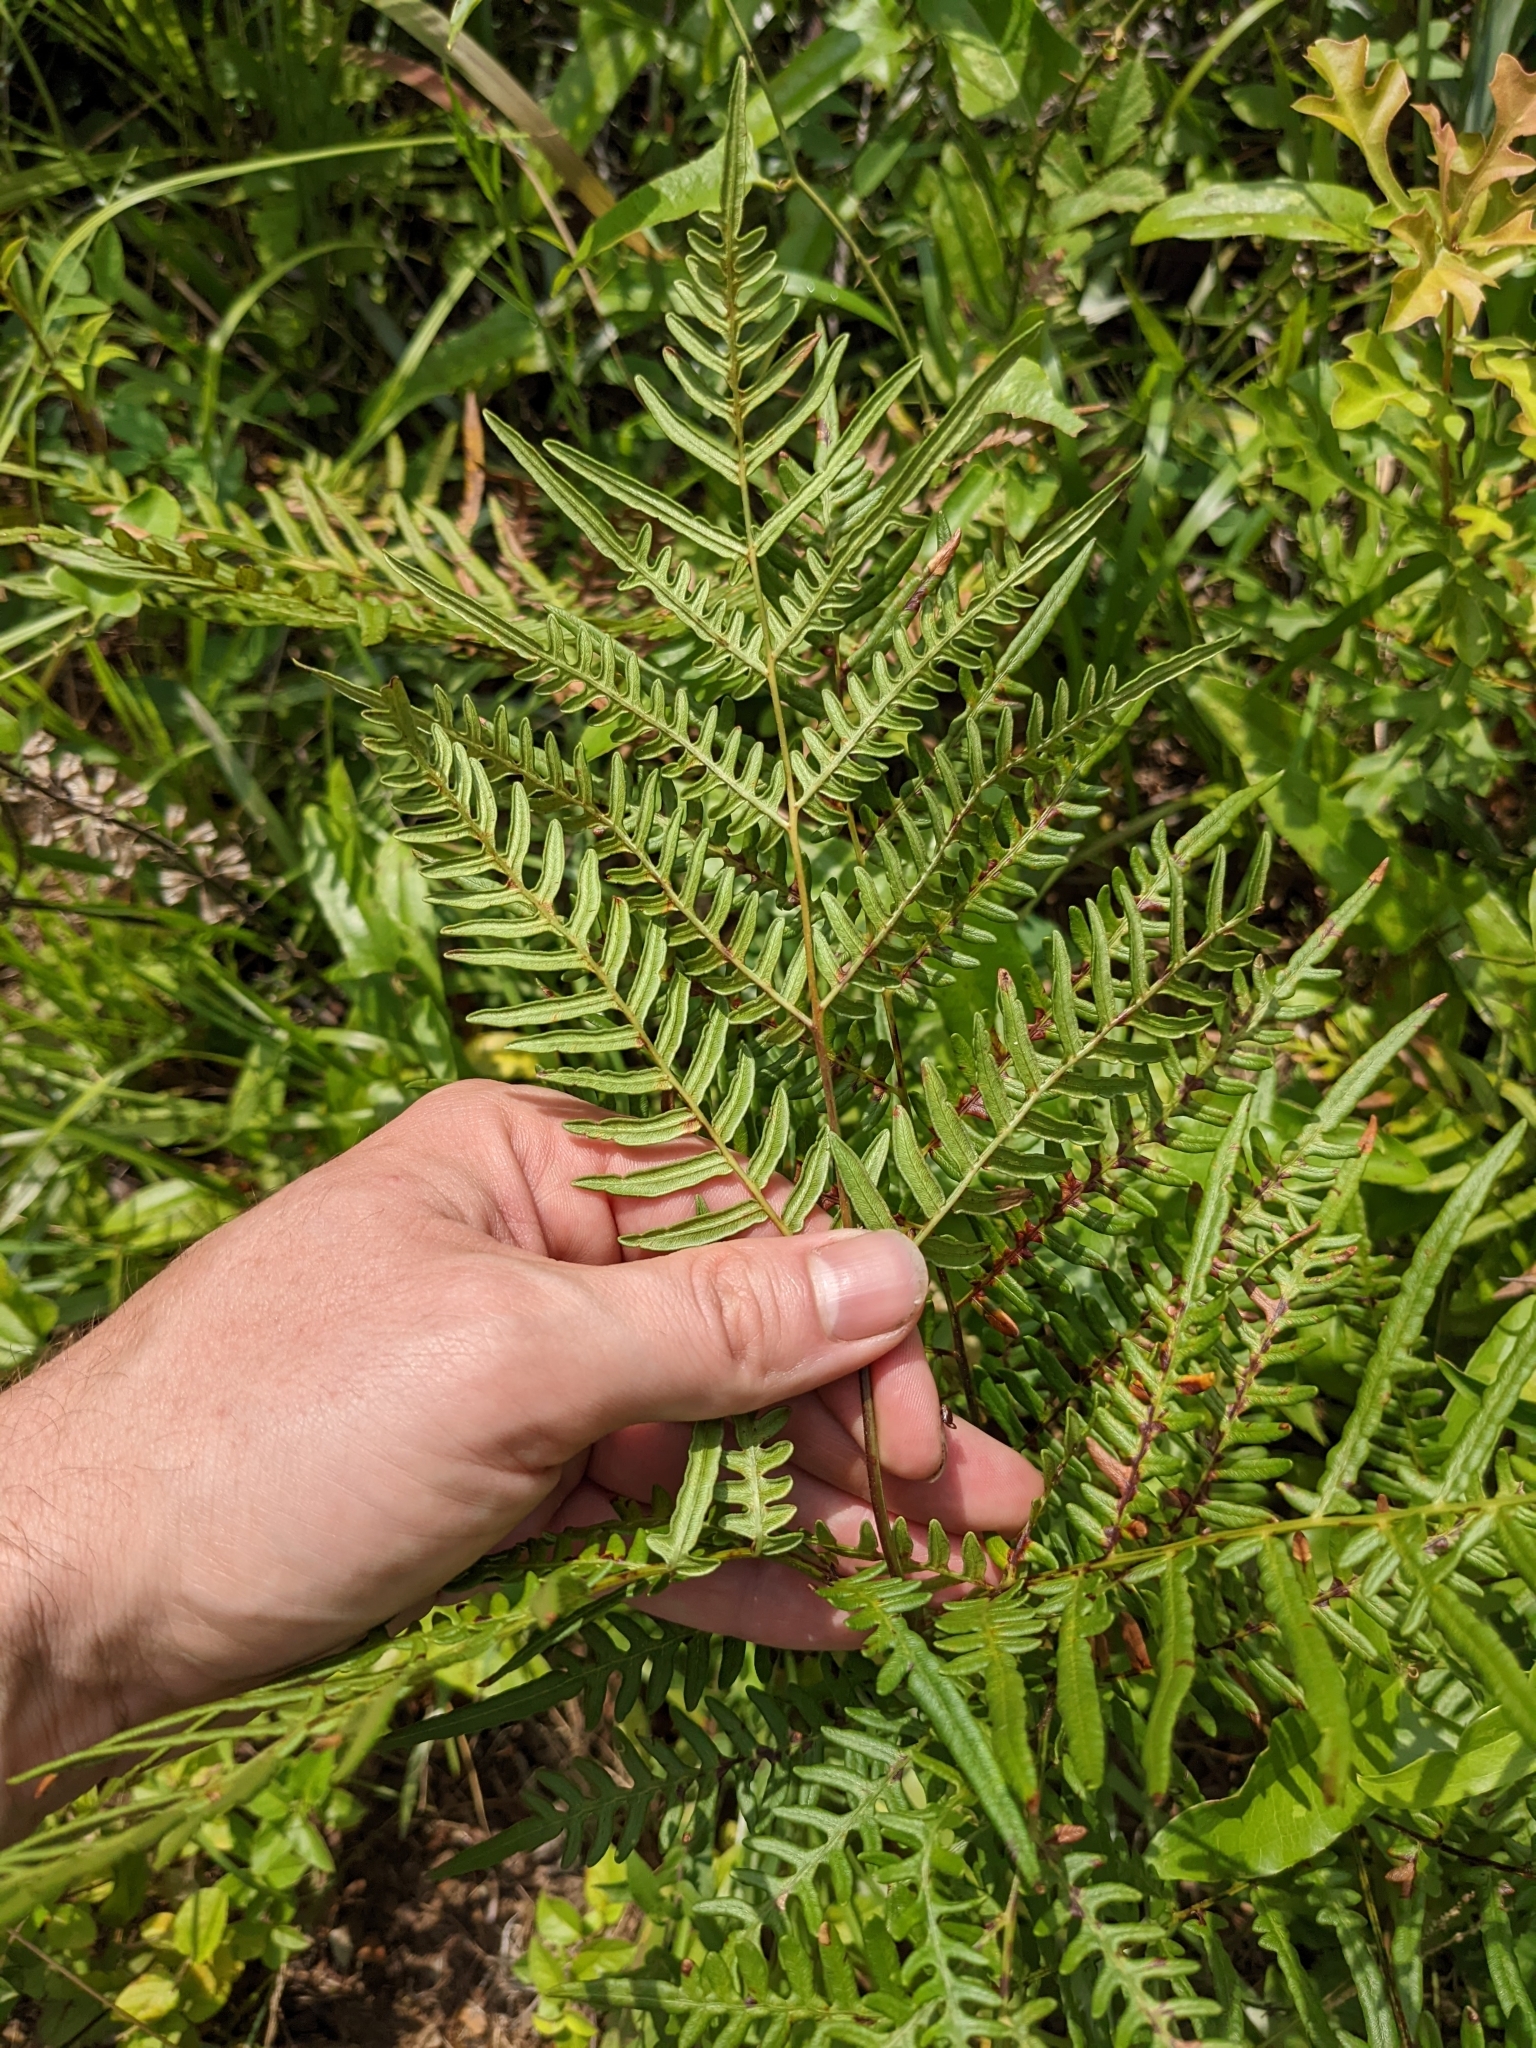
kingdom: Plantae
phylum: Tracheophyta
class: Polypodiopsida
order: Polypodiales
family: Dennstaedtiaceae
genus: Pteridium
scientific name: Pteridium aquilinum
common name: Bracken
